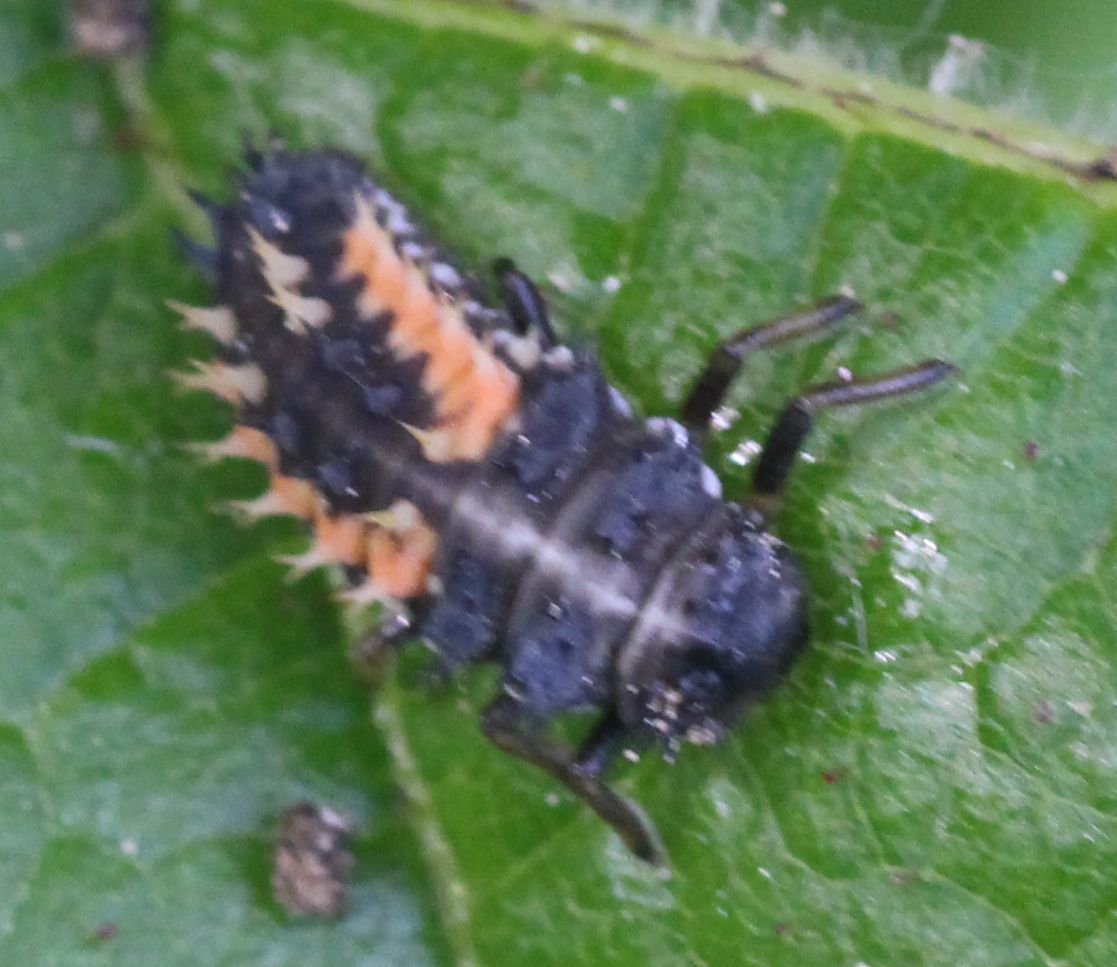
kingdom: Animalia
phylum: Arthropoda
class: Insecta
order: Coleoptera
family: Coccinellidae
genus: Harmonia
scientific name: Harmonia axyridis
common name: Harlequin ladybird
